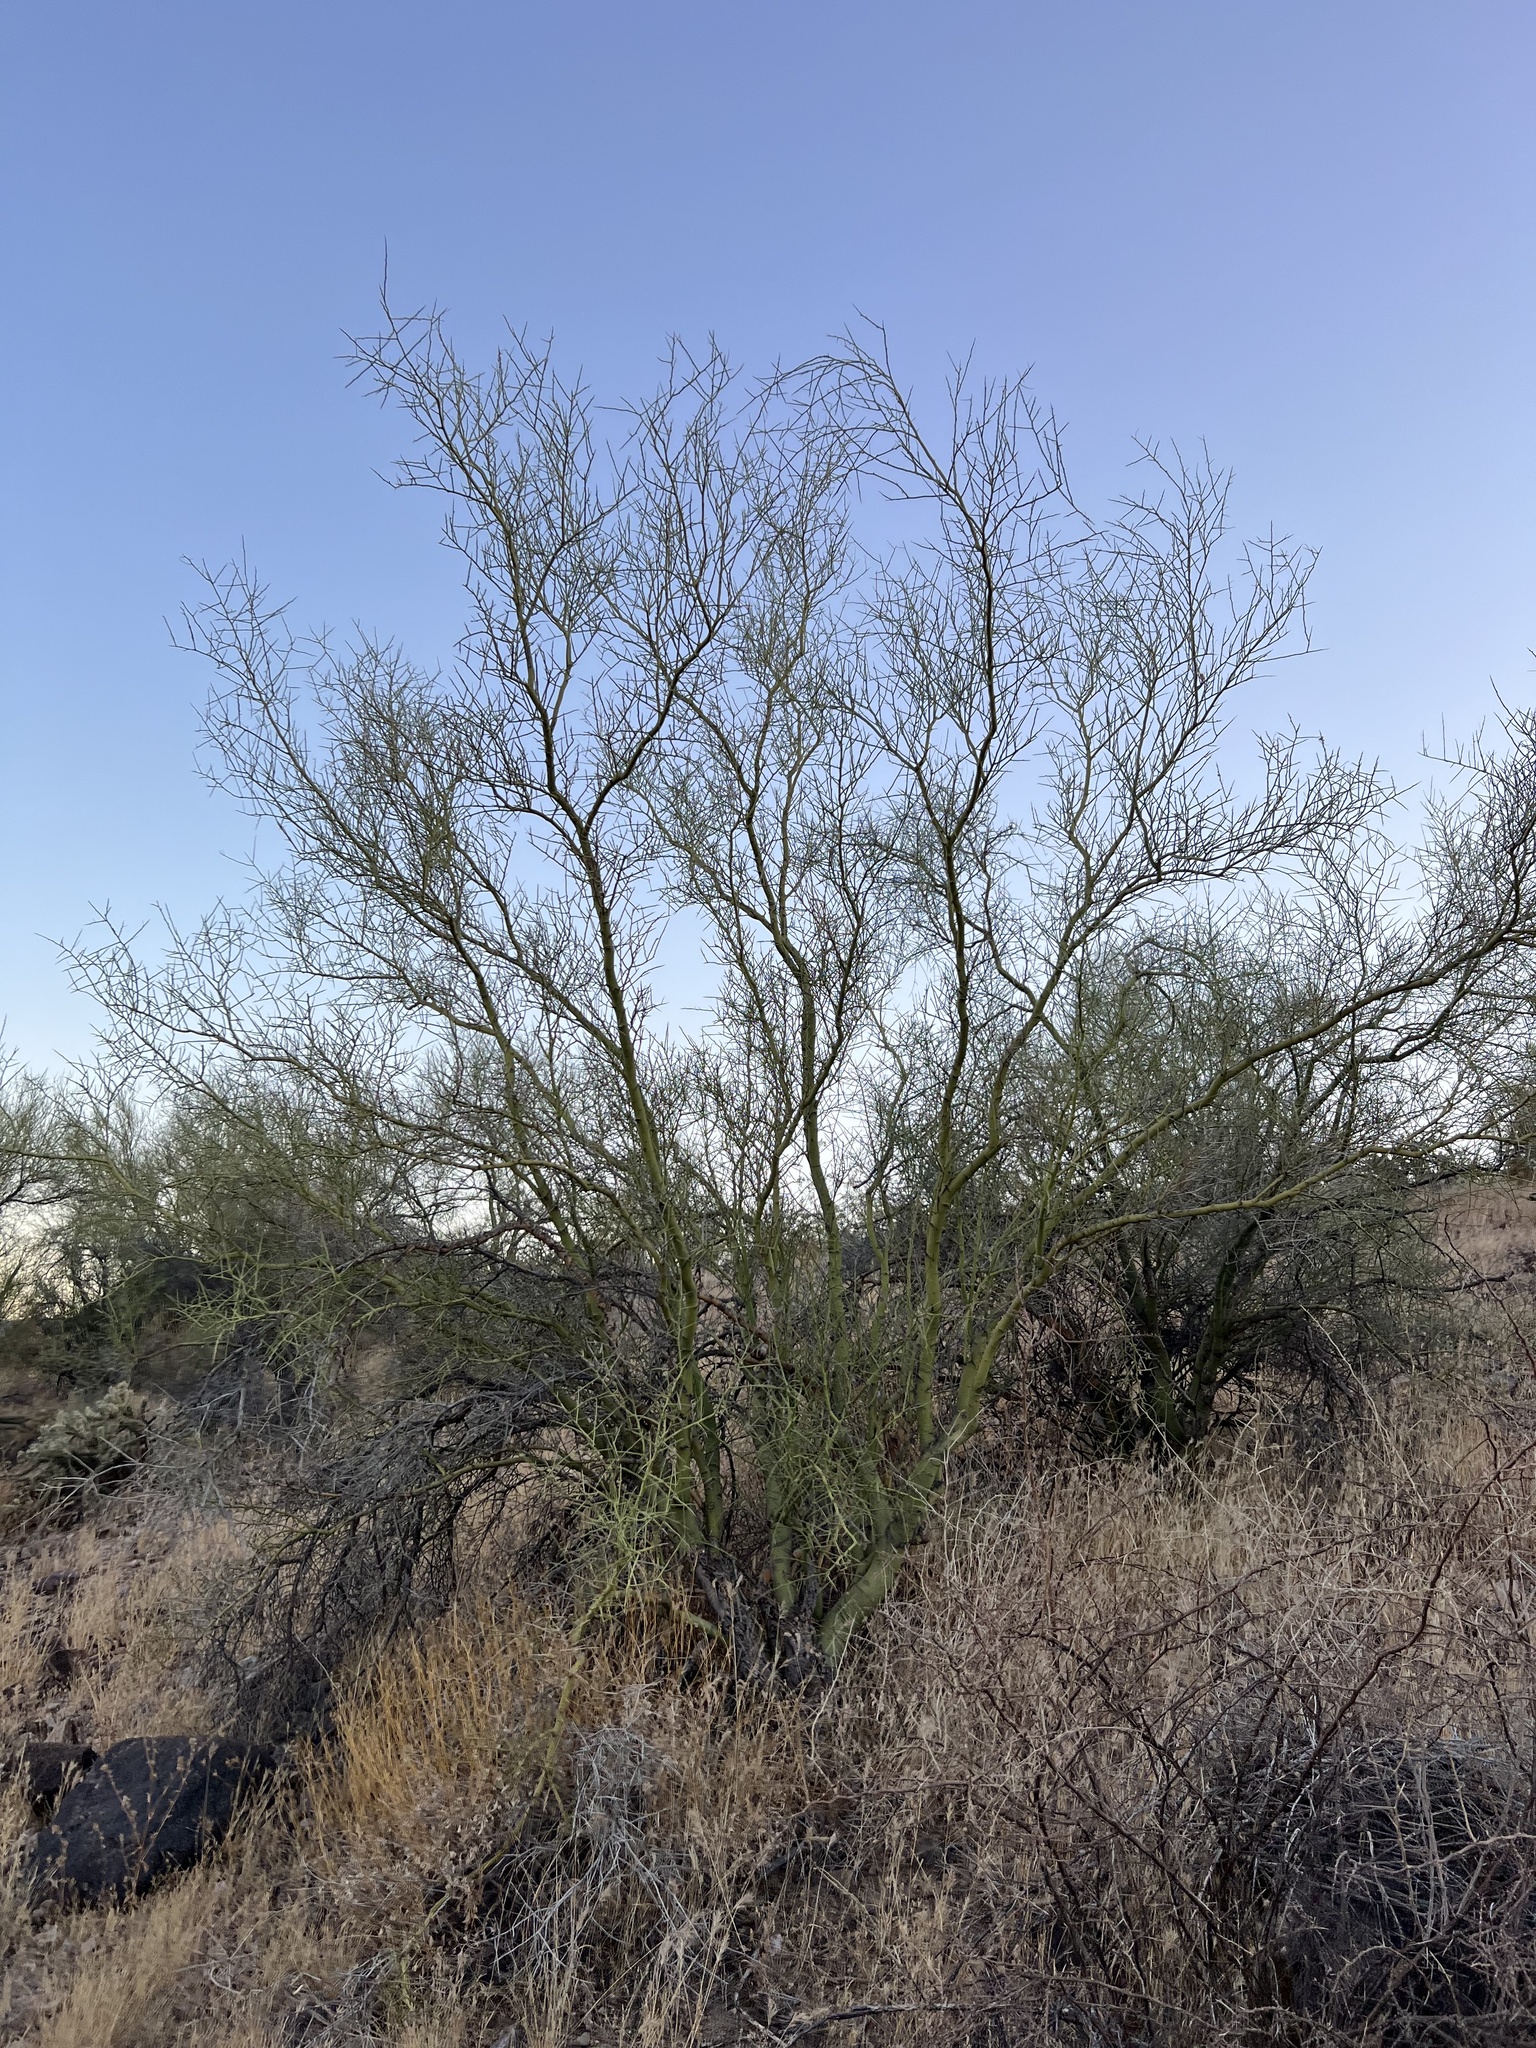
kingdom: Plantae
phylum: Tracheophyta
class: Magnoliopsida
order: Fabales
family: Fabaceae
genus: Parkinsonia
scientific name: Parkinsonia microphylla
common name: Yellow paloverde
